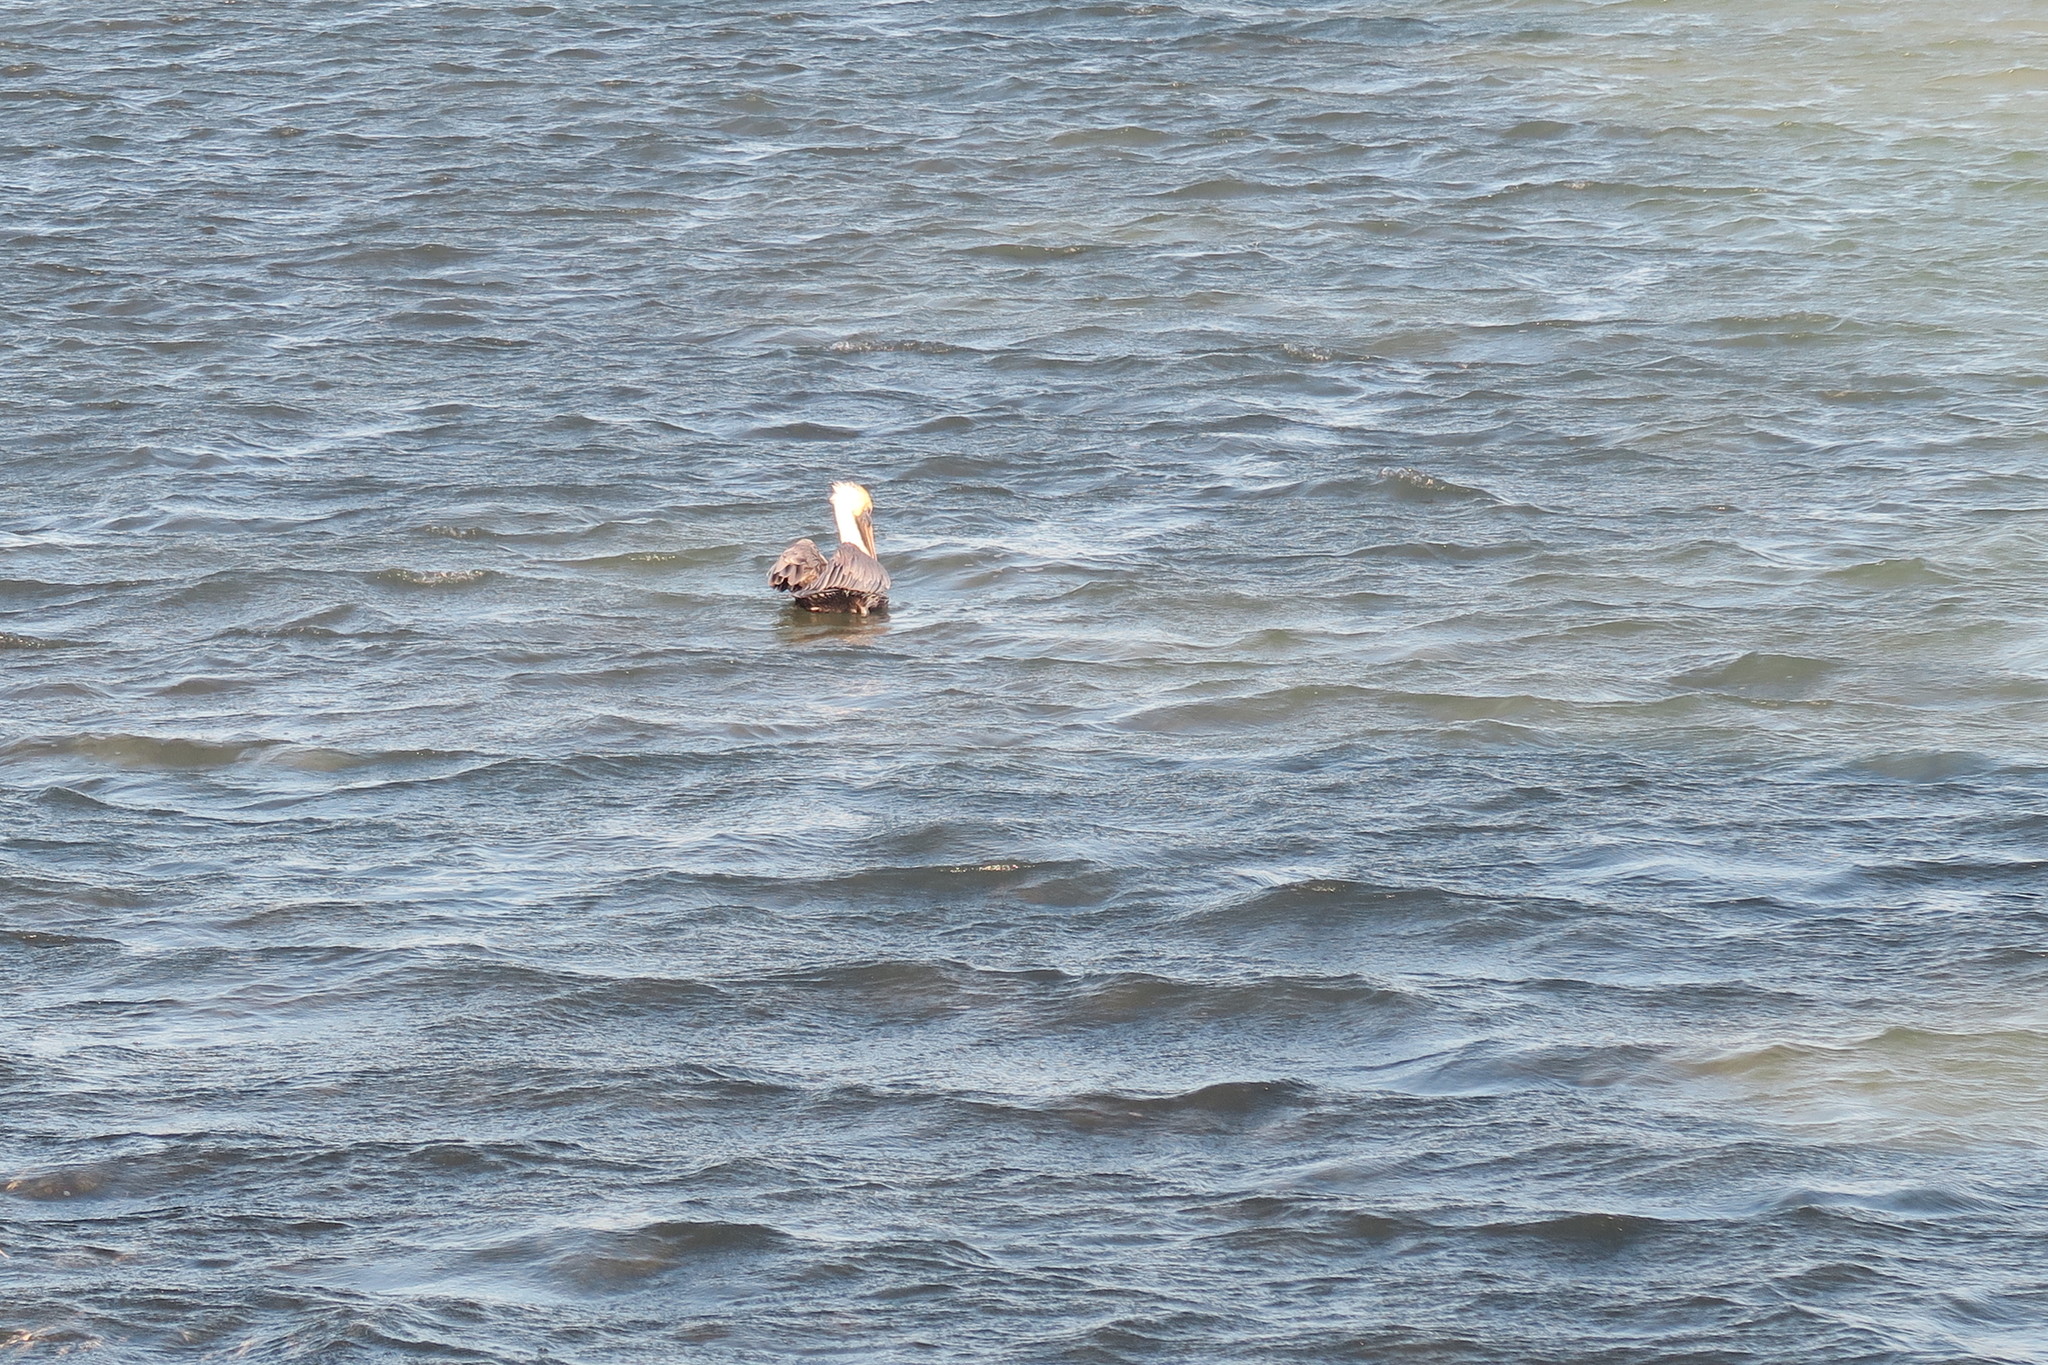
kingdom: Animalia
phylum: Chordata
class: Aves
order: Pelecaniformes
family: Pelecanidae
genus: Pelecanus
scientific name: Pelecanus occidentalis
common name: Brown pelican
